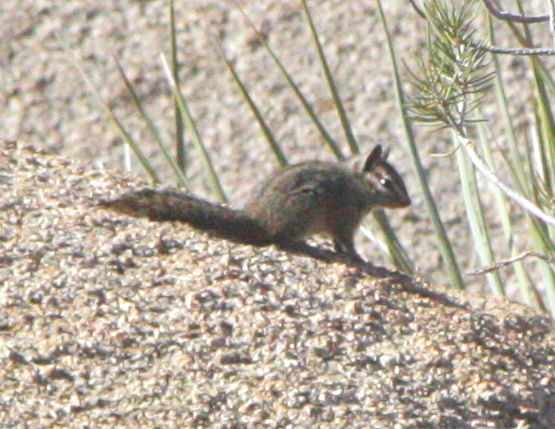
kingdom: Animalia
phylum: Chordata
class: Mammalia
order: Rodentia
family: Sciuridae
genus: Tamias
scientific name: Tamias obscurus
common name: California chipmunk
